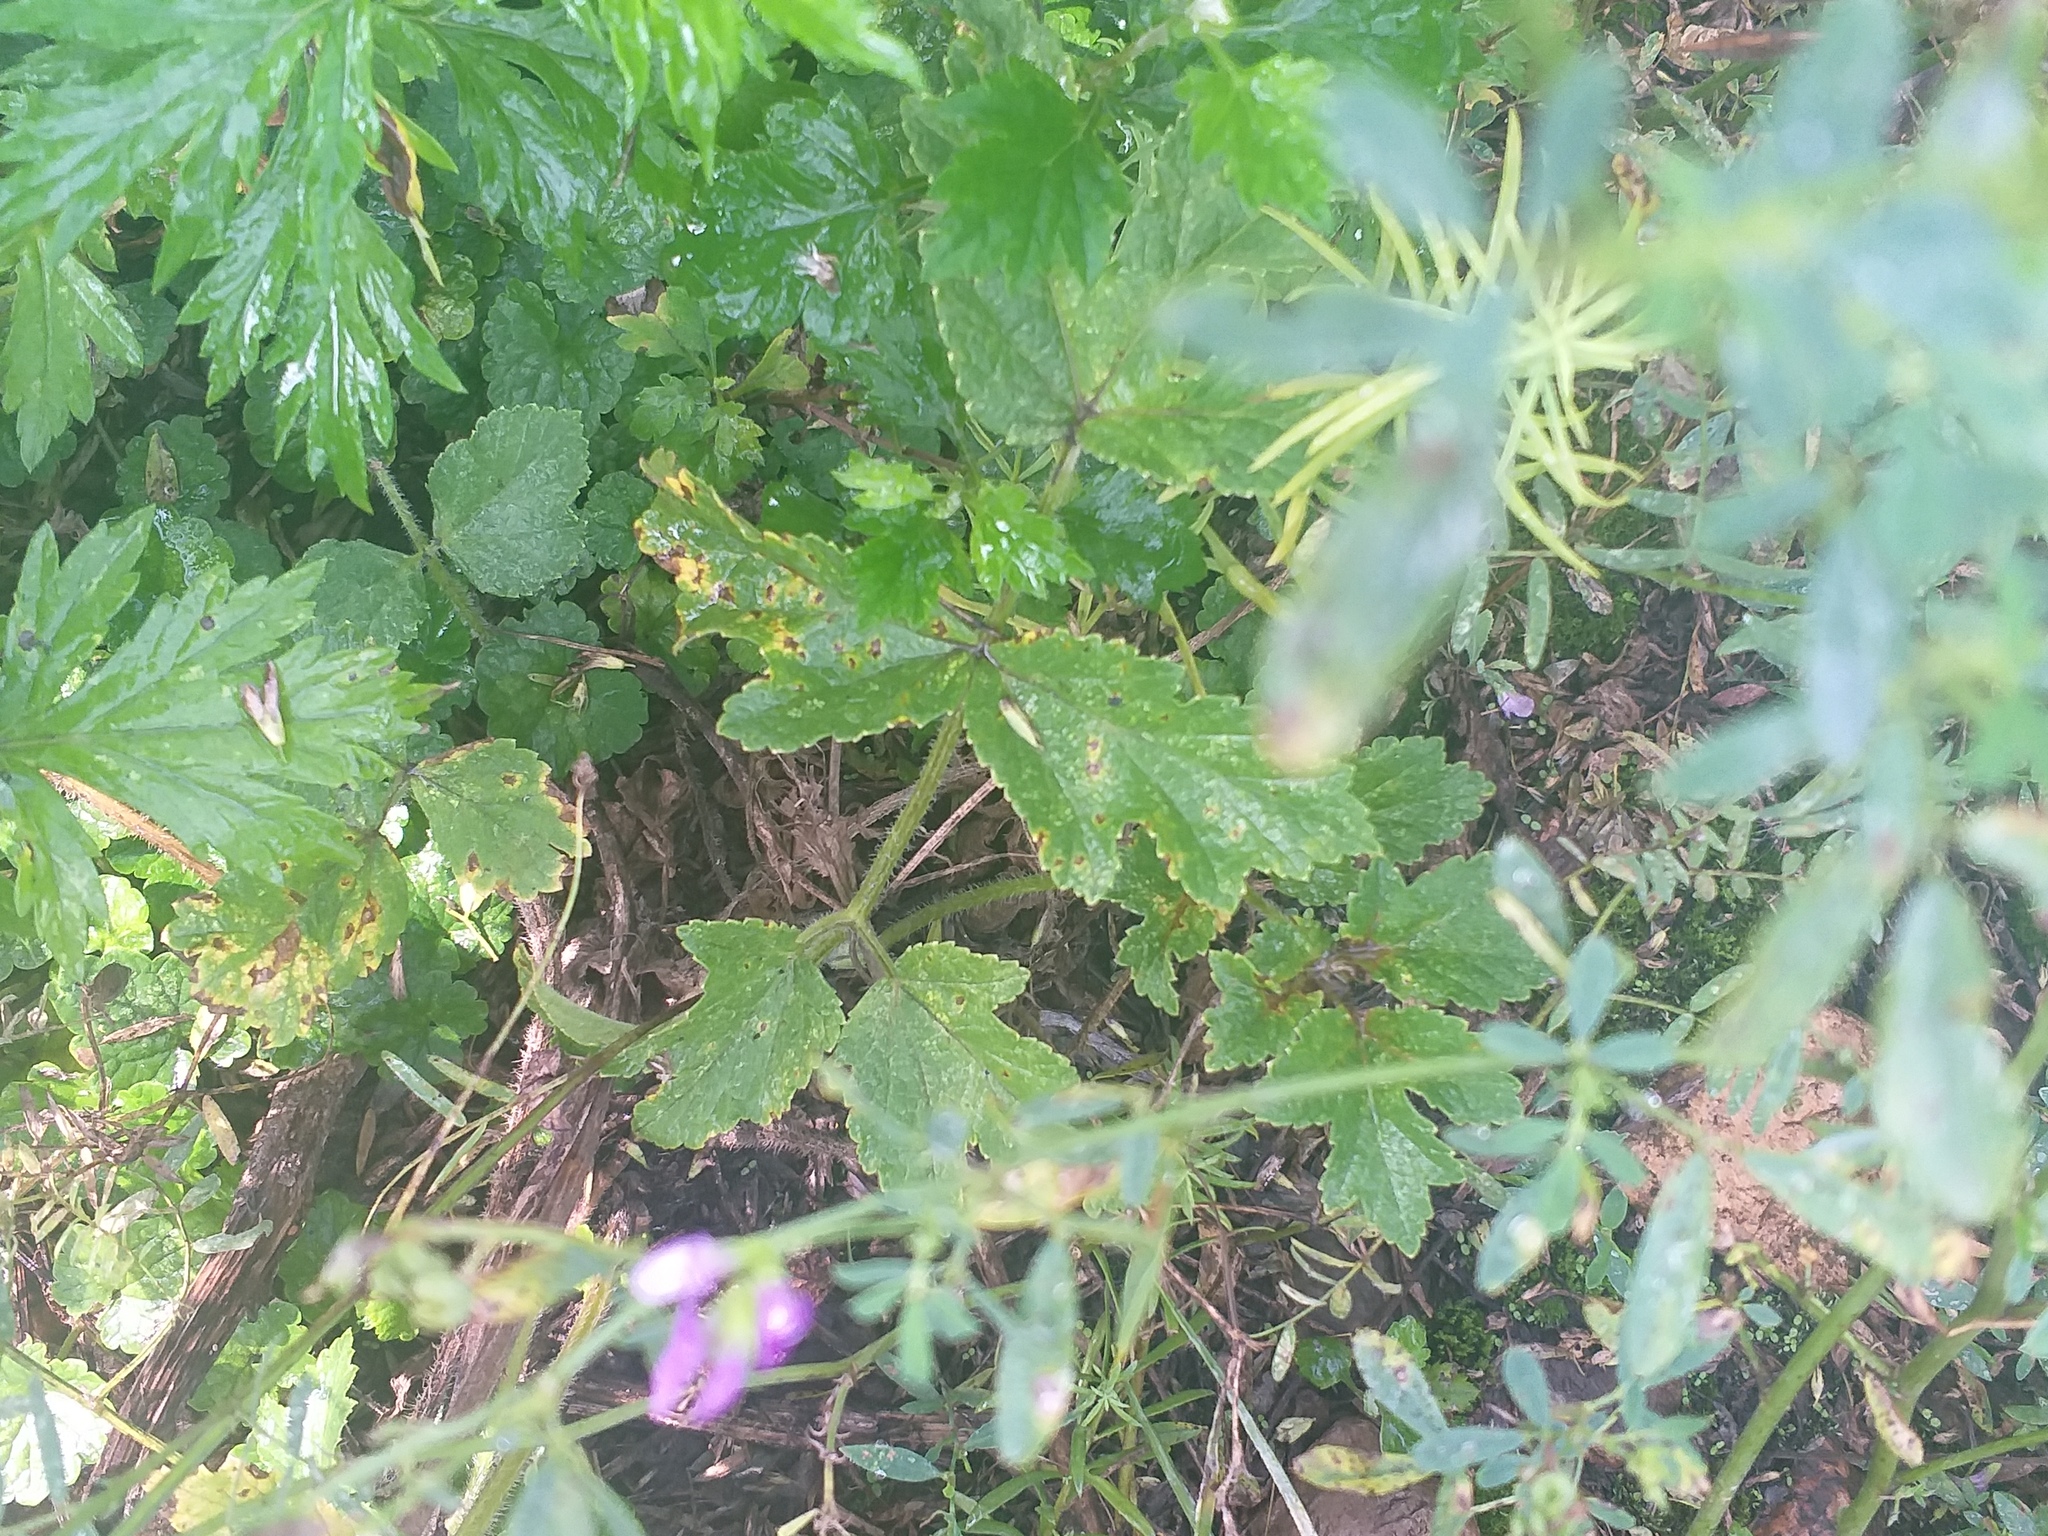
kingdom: Plantae
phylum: Tracheophyta
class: Magnoliopsida
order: Apiales
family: Apiaceae
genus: Heracleum
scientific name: Heracleum sphondylium
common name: Hogweed
